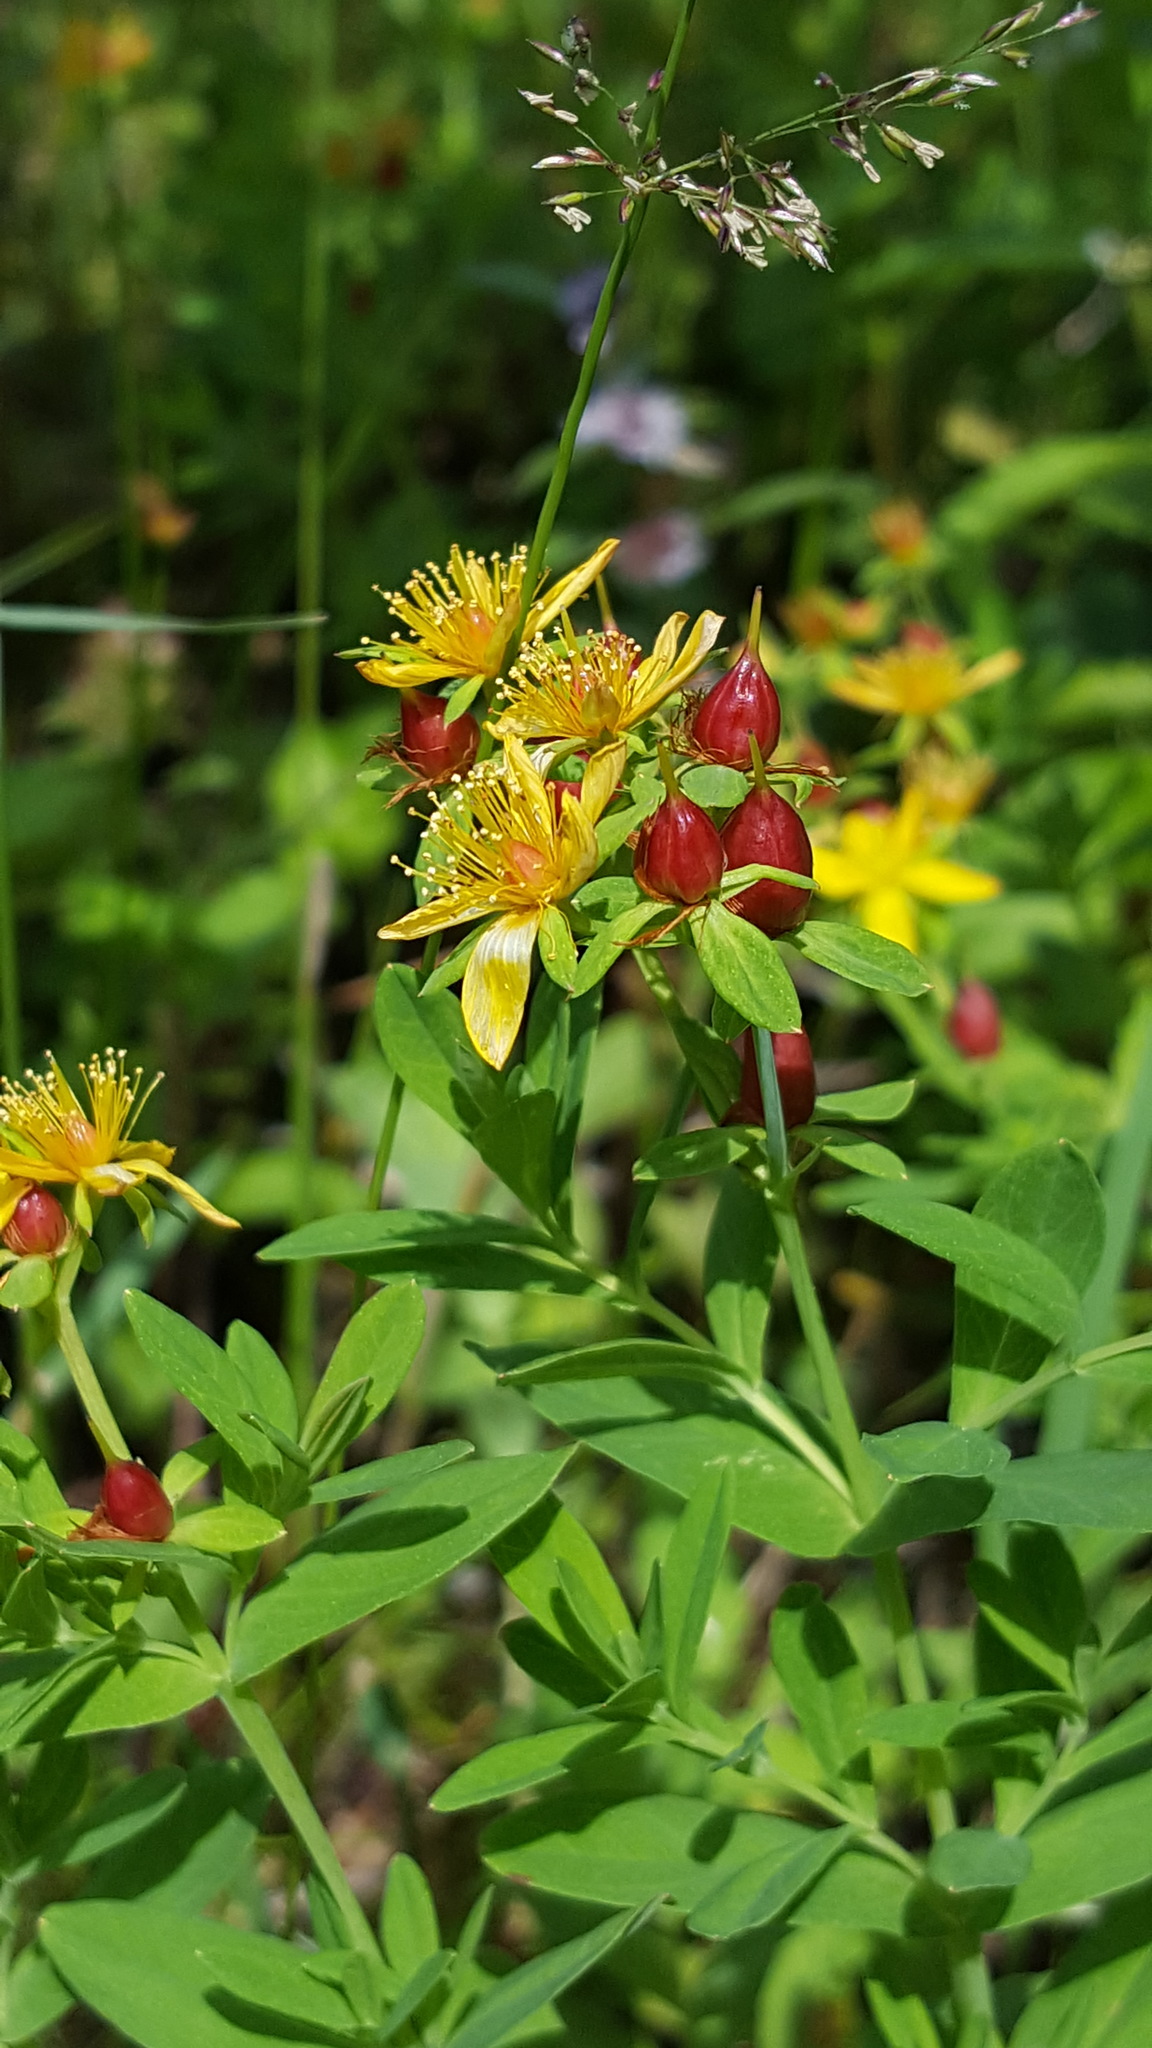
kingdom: Plantae
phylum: Tracheophyta
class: Magnoliopsida
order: Malpighiales
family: Hypericaceae
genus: Hypericum
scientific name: Hypericum ellipticum
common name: Elliptic st. john's-wort
